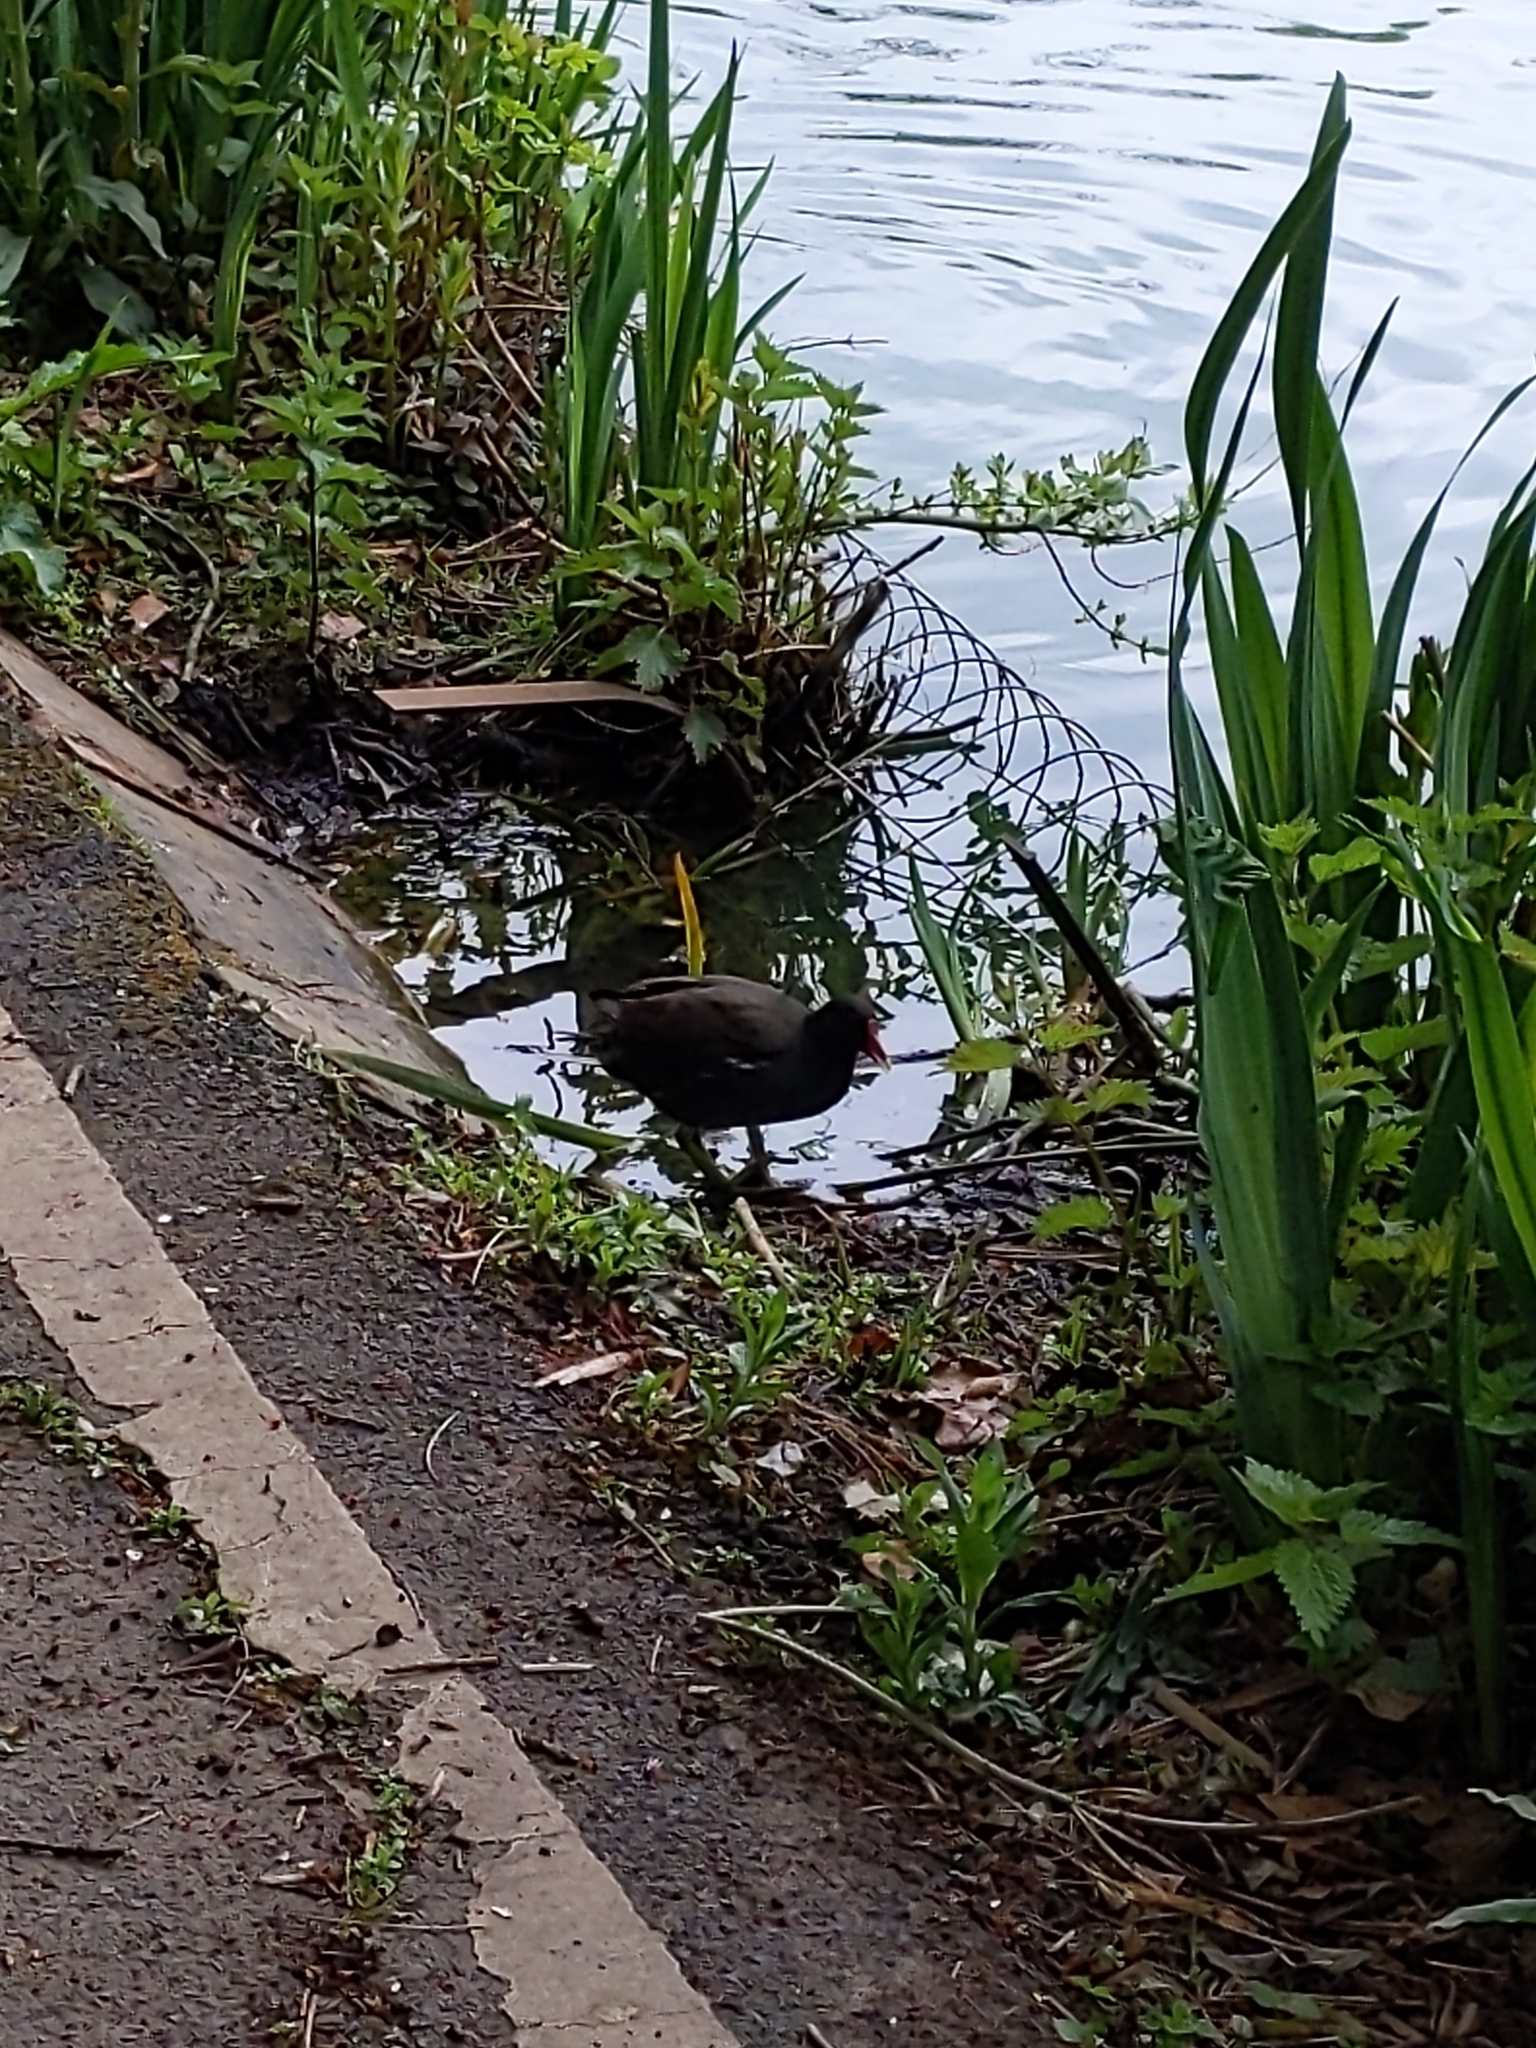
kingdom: Animalia
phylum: Chordata
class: Aves
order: Gruiformes
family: Rallidae
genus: Gallinula
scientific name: Gallinula chloropus
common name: Common moorhen
